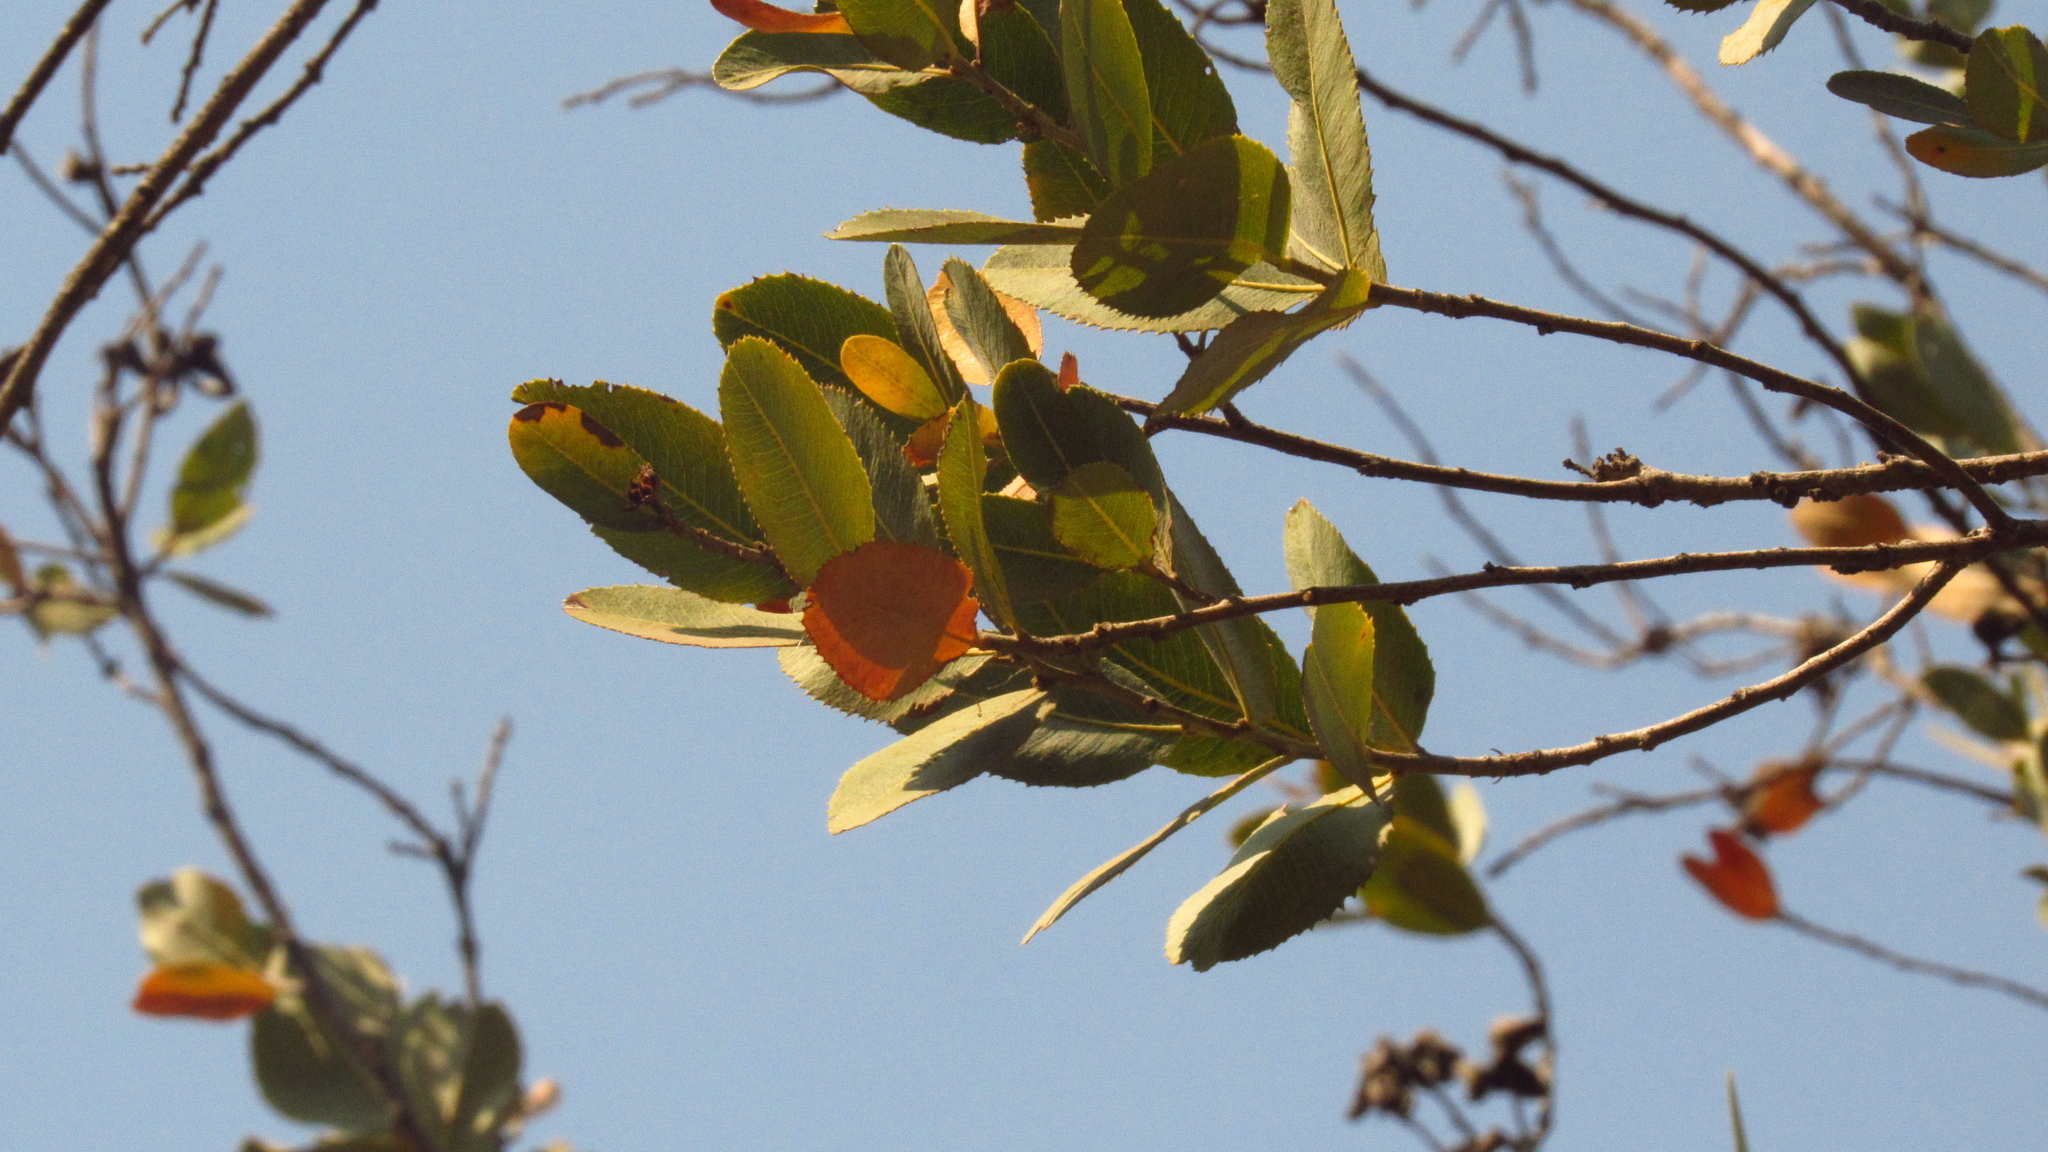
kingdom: Plantae
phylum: Tracheophyta
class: Magnoliopsida
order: Rosales
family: Rosaceae
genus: Kageneckia
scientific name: Kageneckia oblonga
